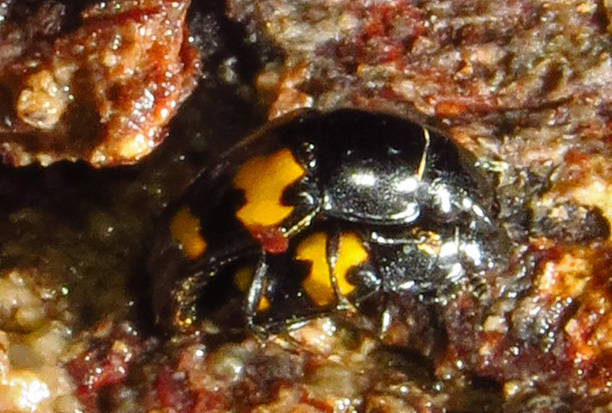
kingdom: Animalia
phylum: Arthropoda
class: Insecta
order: Coleoptera
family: Nitidulidae
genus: Glischrochilus
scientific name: Glischrochilus fasciatus
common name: Picnic beetle
